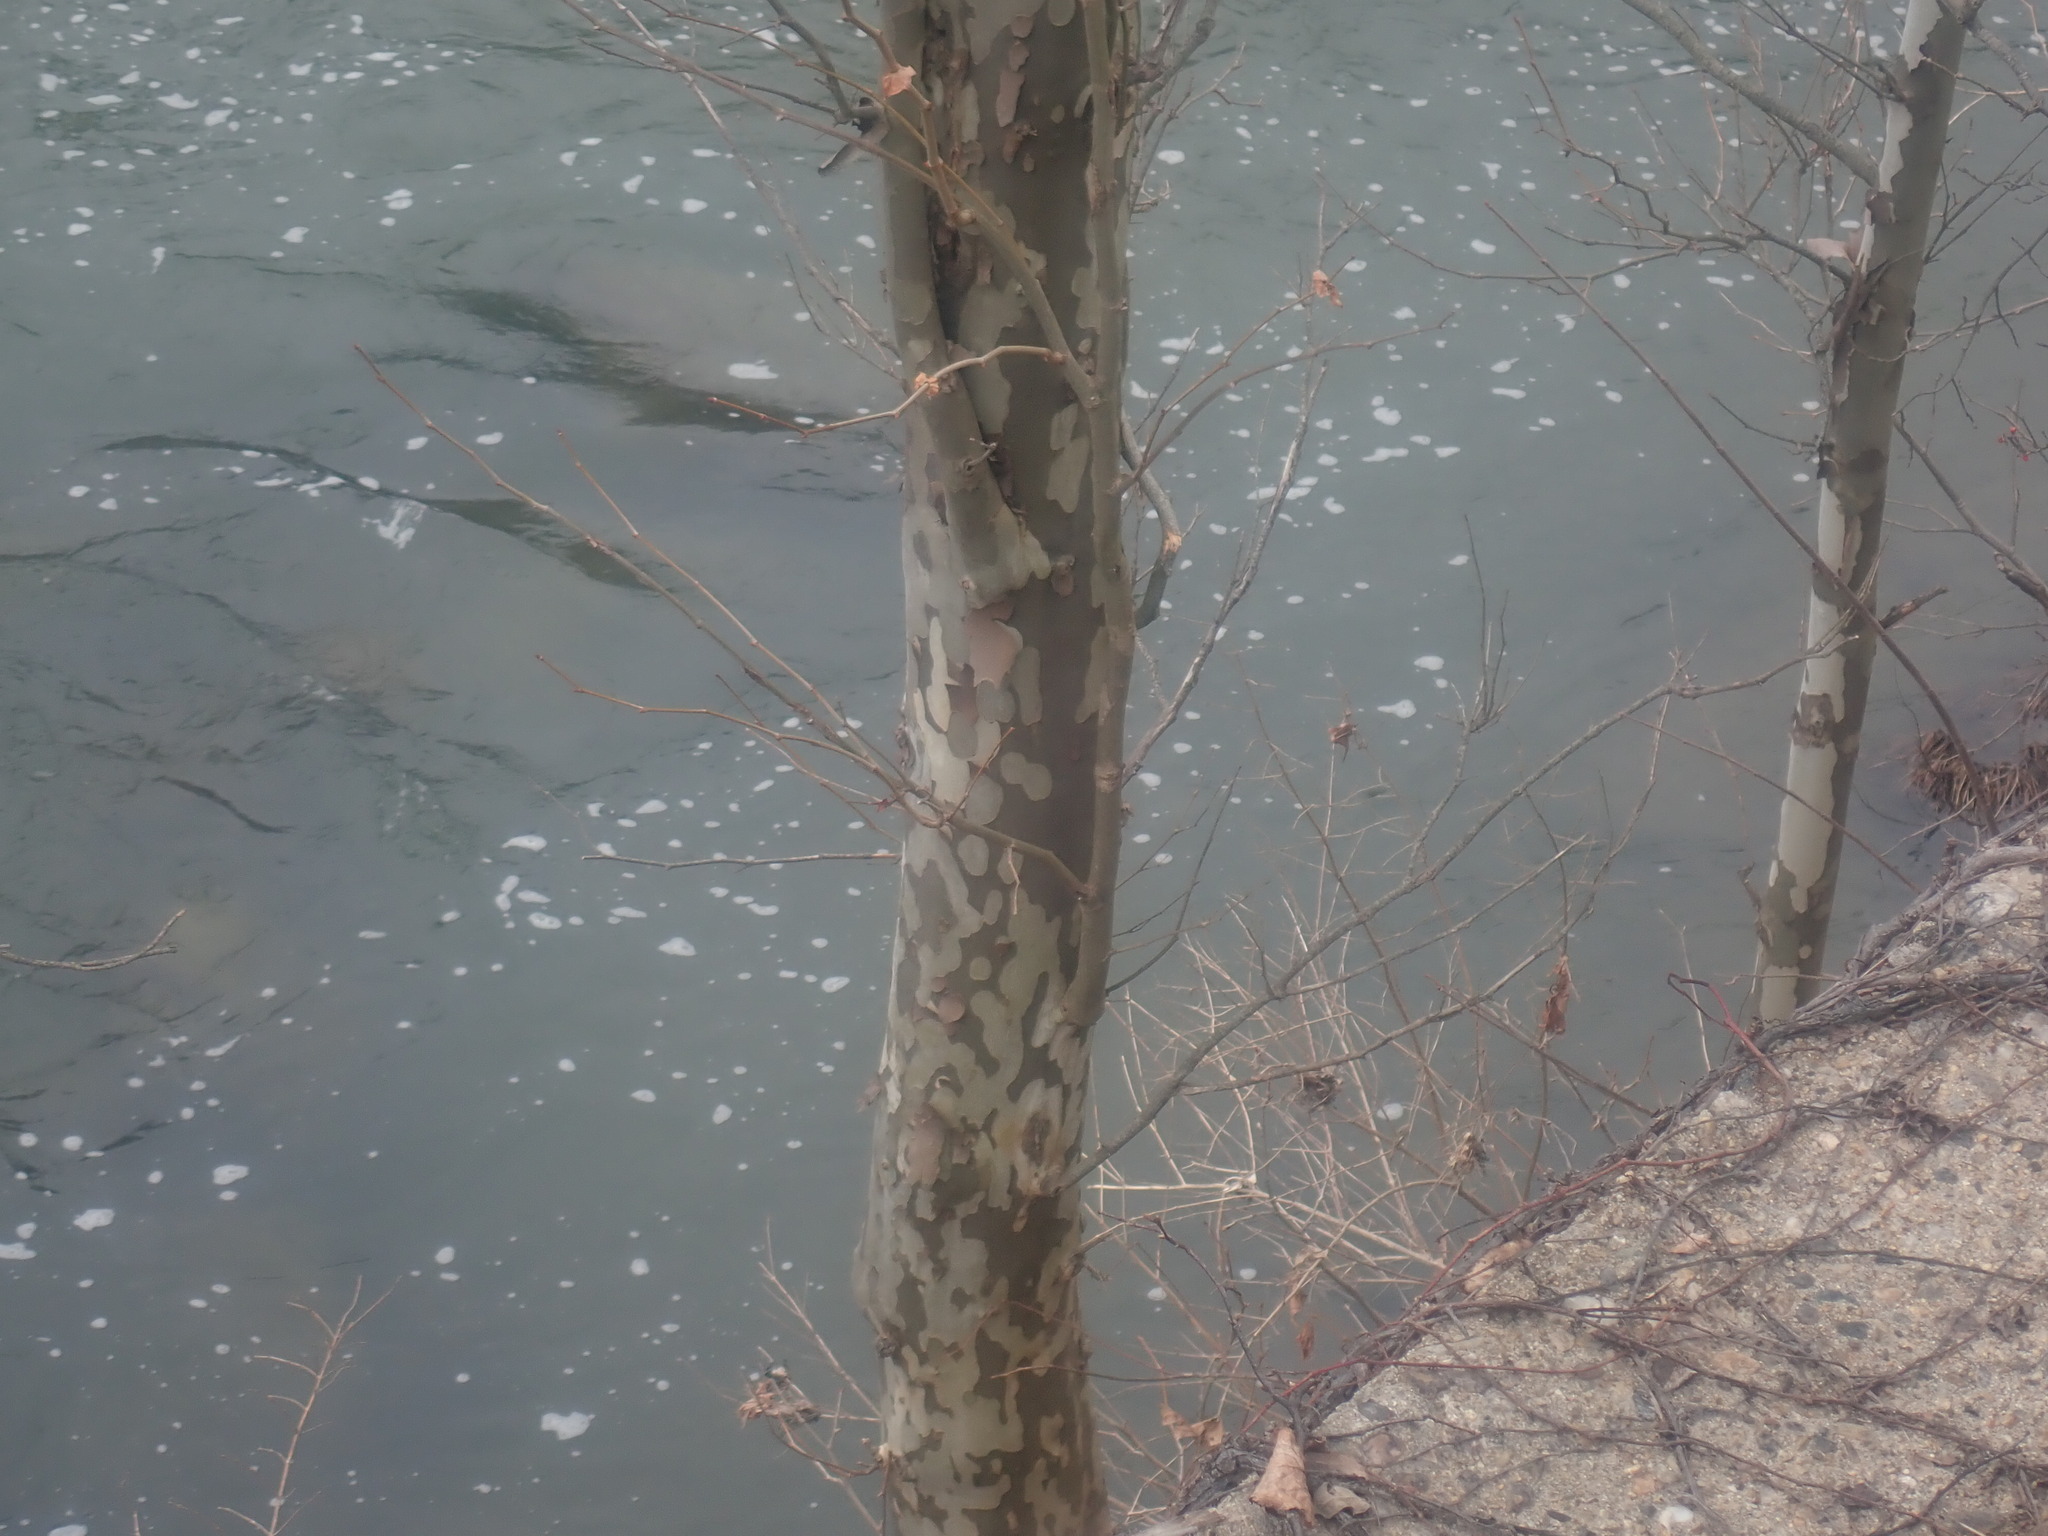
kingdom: Plantae
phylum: Tracheophyta
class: Magnoliopsida
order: Proteales
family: Platanaceae
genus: Platanus
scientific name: Platanus occidentalis
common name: American sycamore
